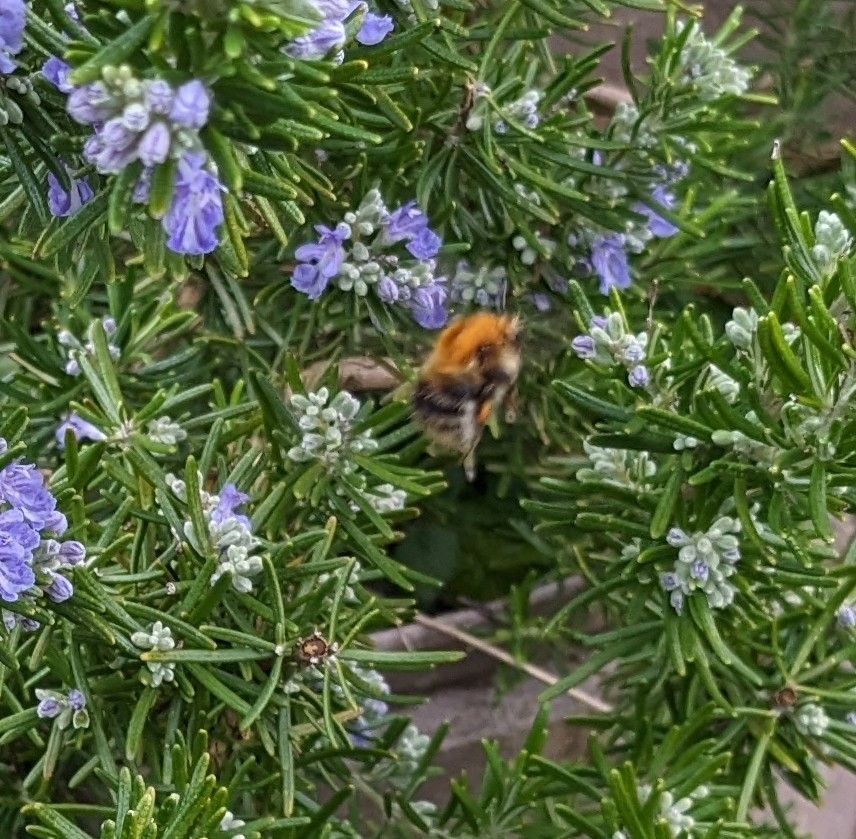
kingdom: Animalia
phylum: Arthropoda
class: Insecta
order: Hymenoptera
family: Apidae
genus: Bombus
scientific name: Bombus pascuorum
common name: Common carder bee
